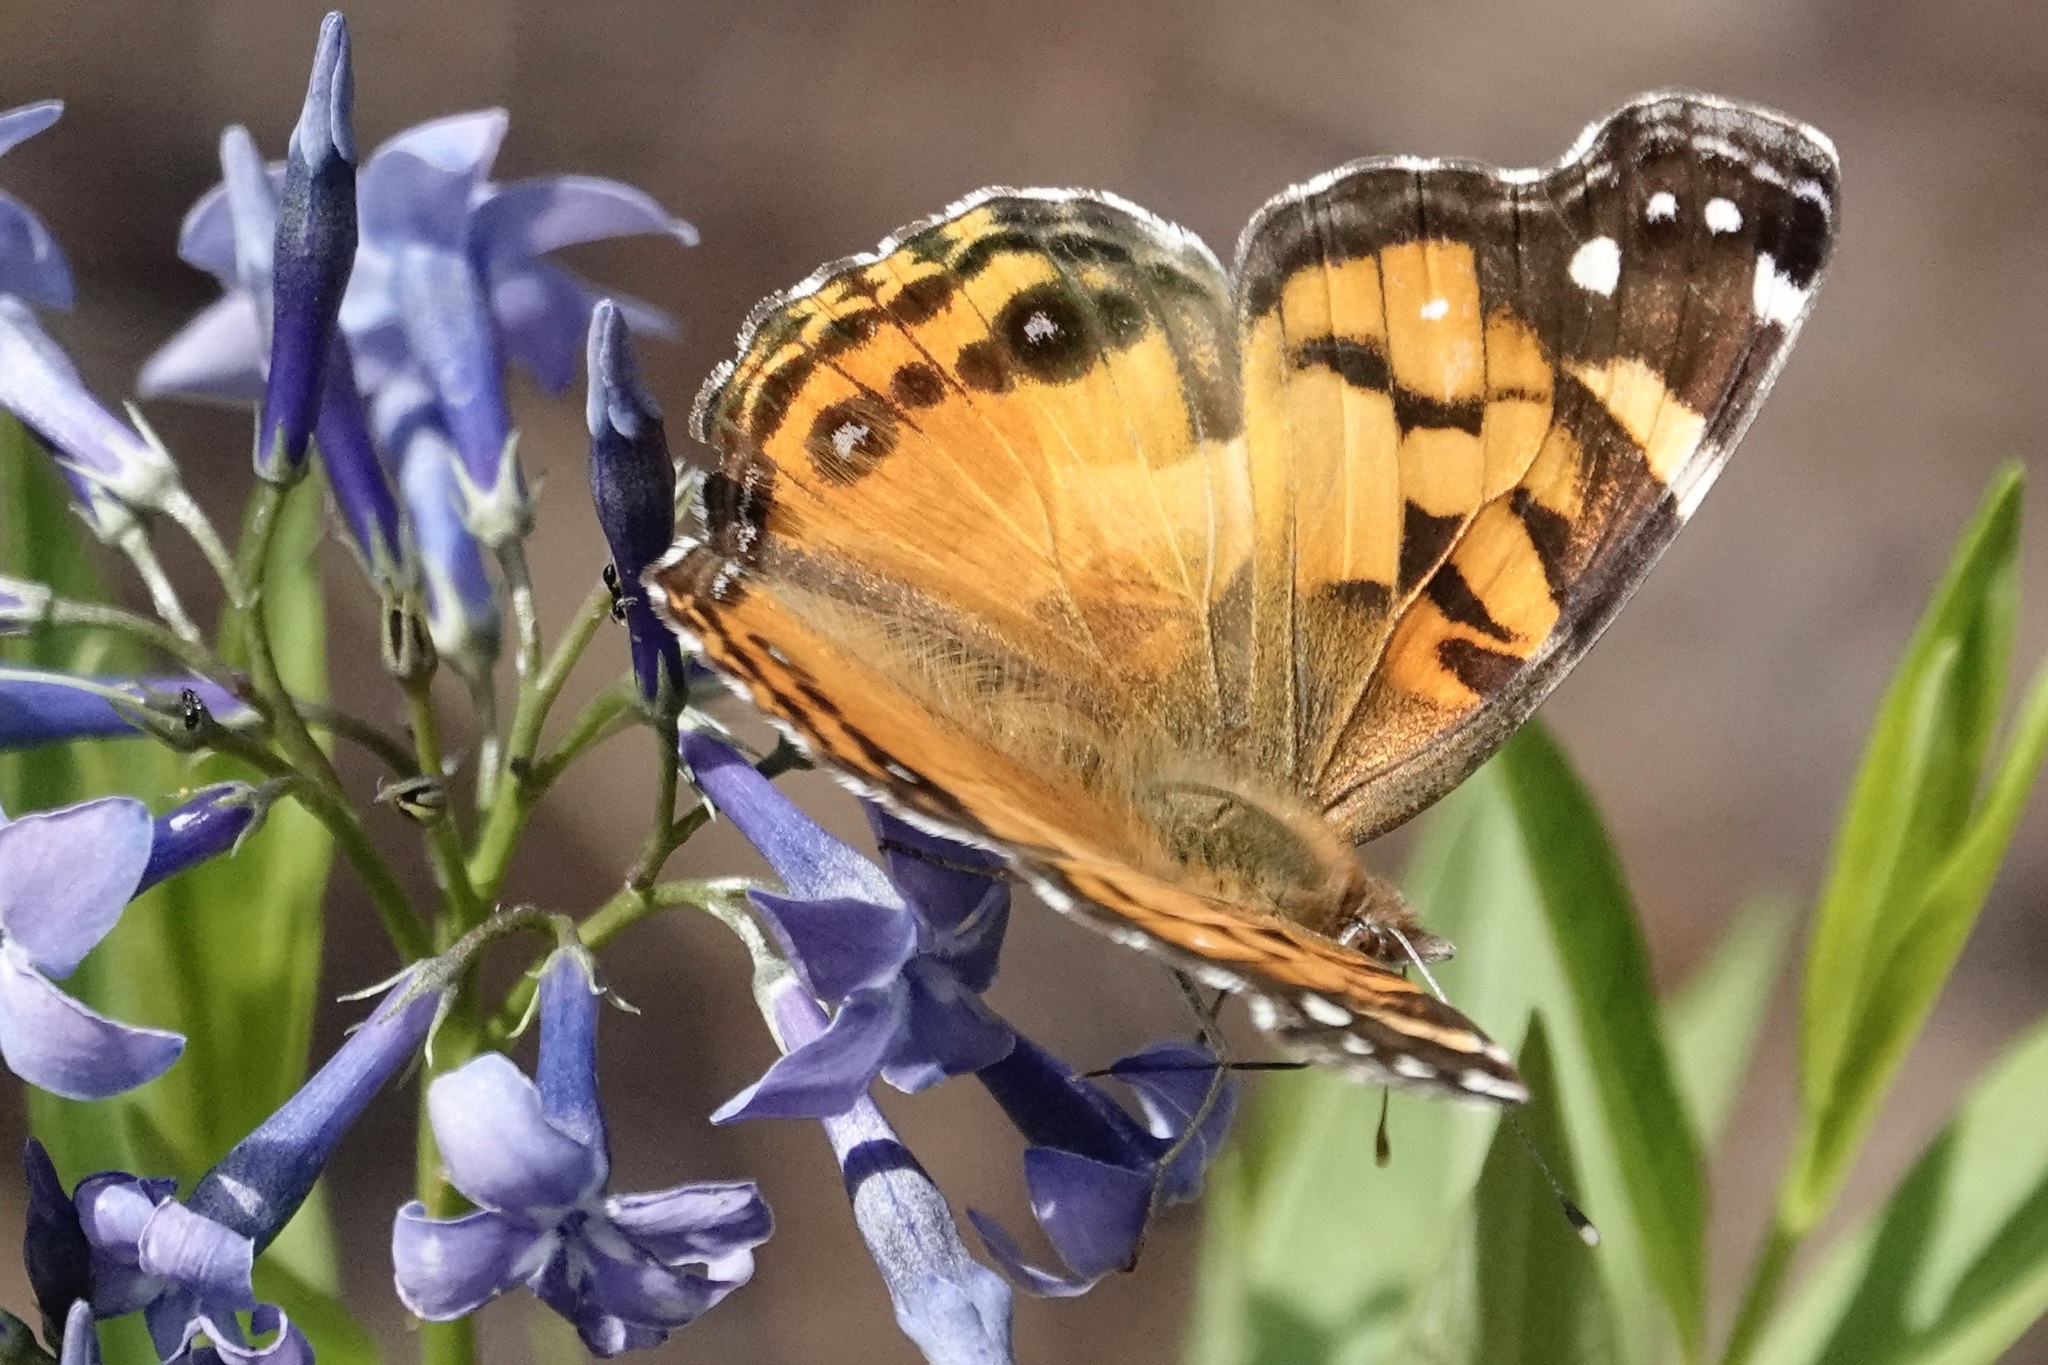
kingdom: Animalia
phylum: Arthropoda
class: Insecta
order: Lepidoptera
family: Nymphalidae
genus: Vanessa
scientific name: Vanessa virginiensis
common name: American lady
